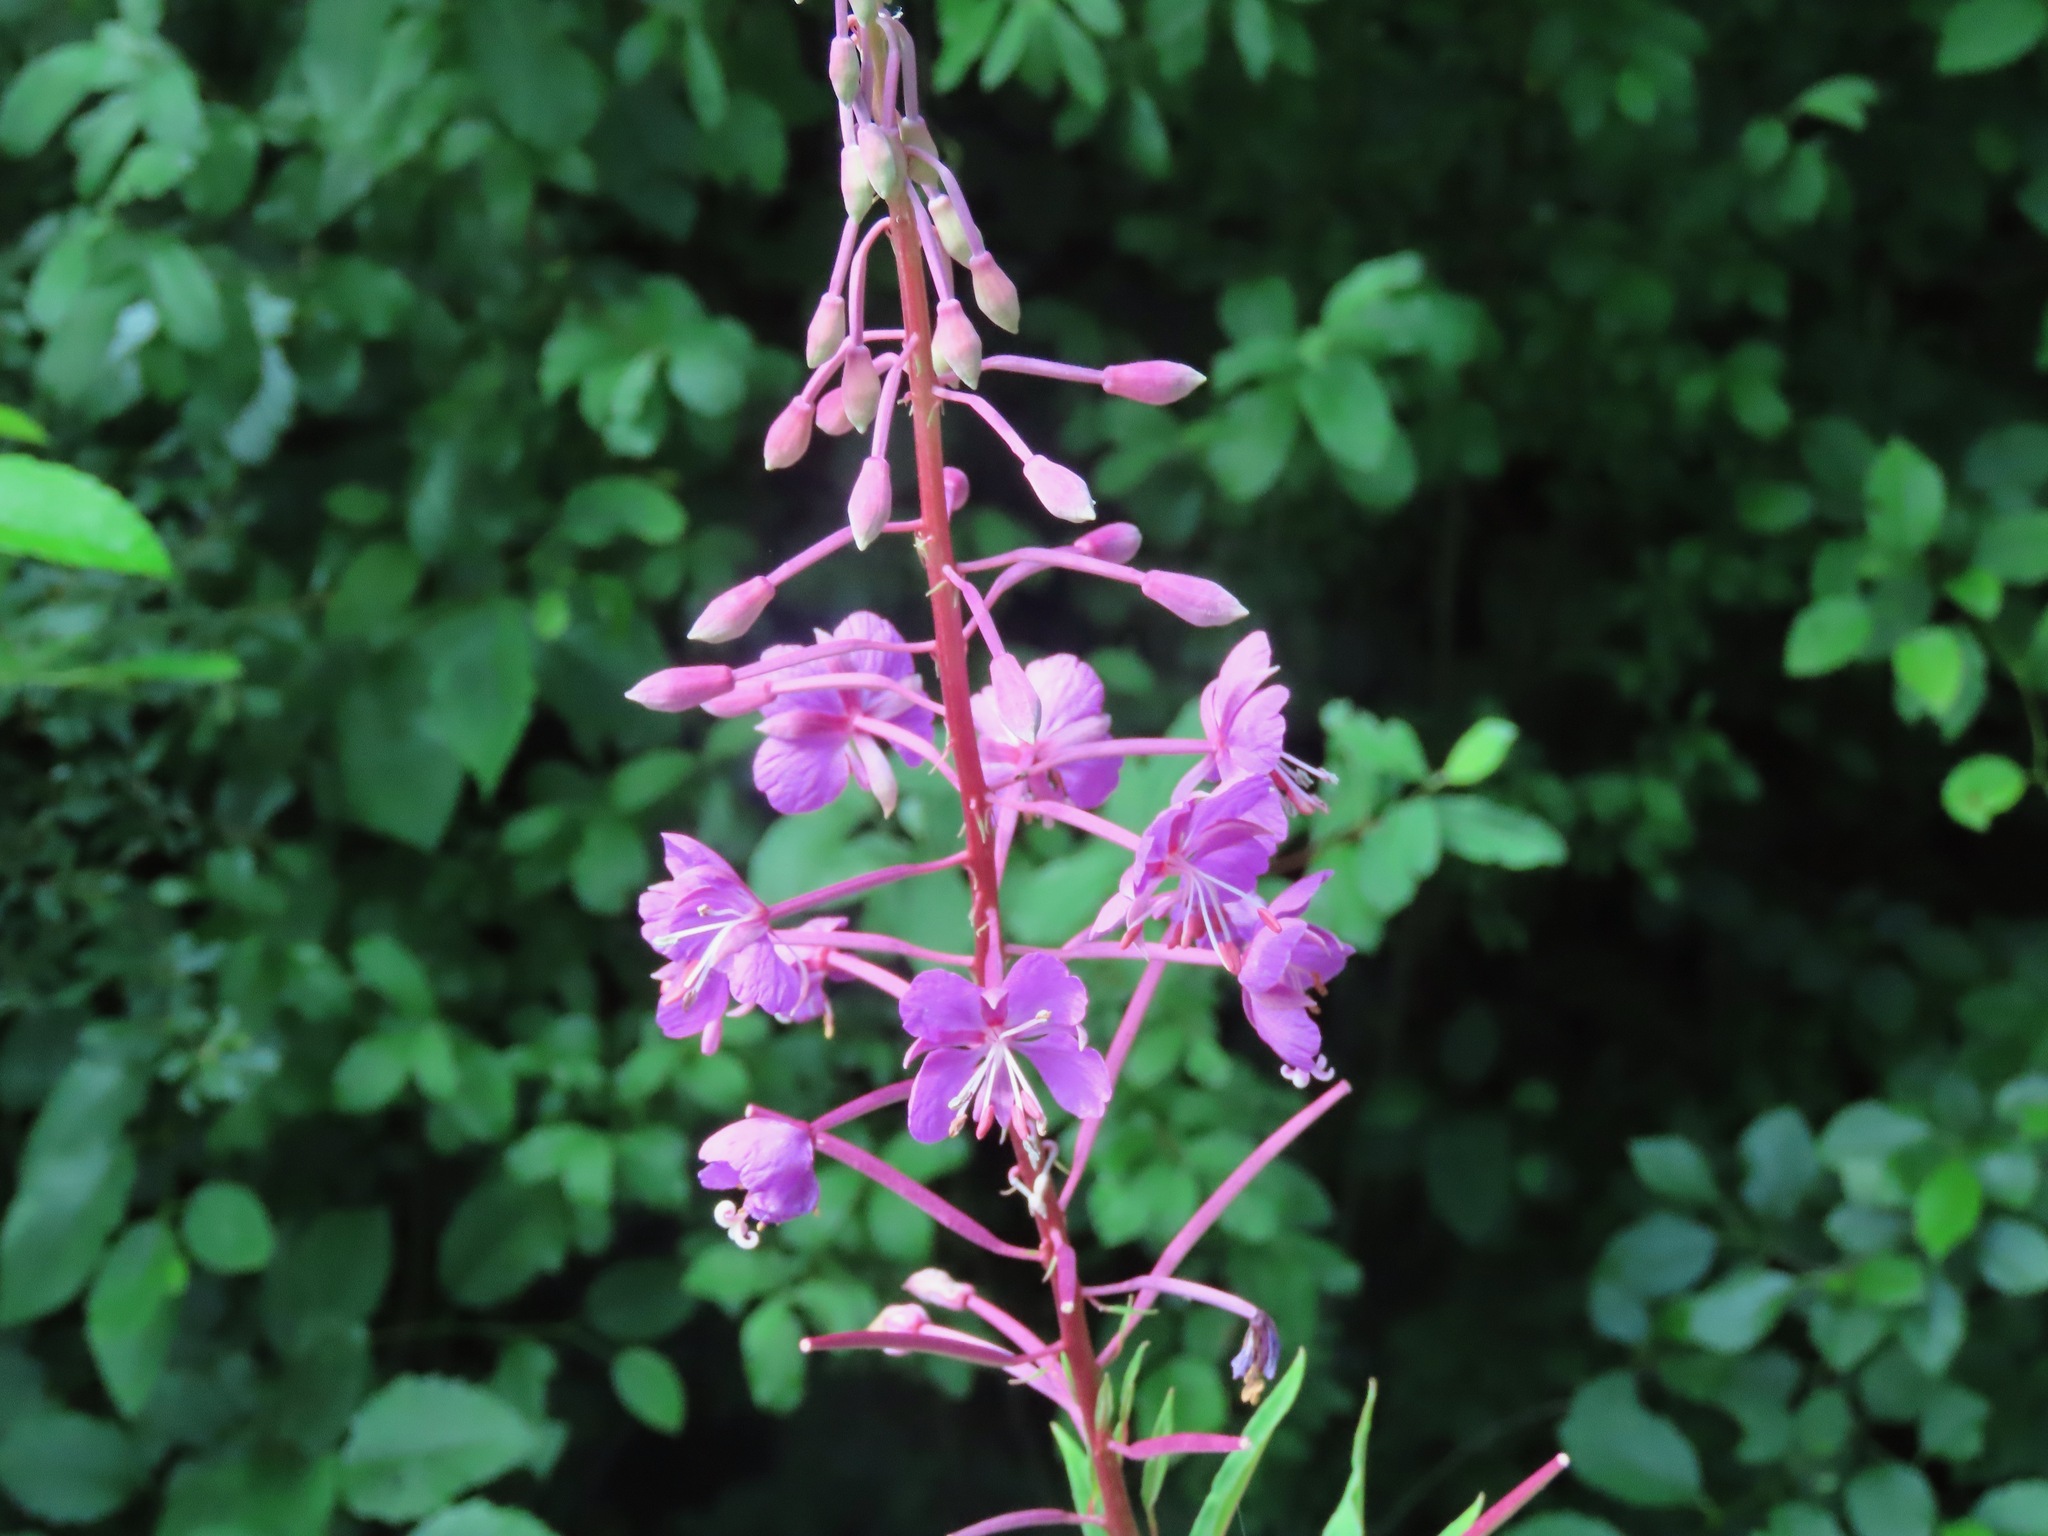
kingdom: Plantae
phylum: Tracheophyta
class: Magnoliopsida
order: Myrtales
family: Onagraceae
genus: Chamaenerion
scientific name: Chamaenerion angustifolium
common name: Fireweed
